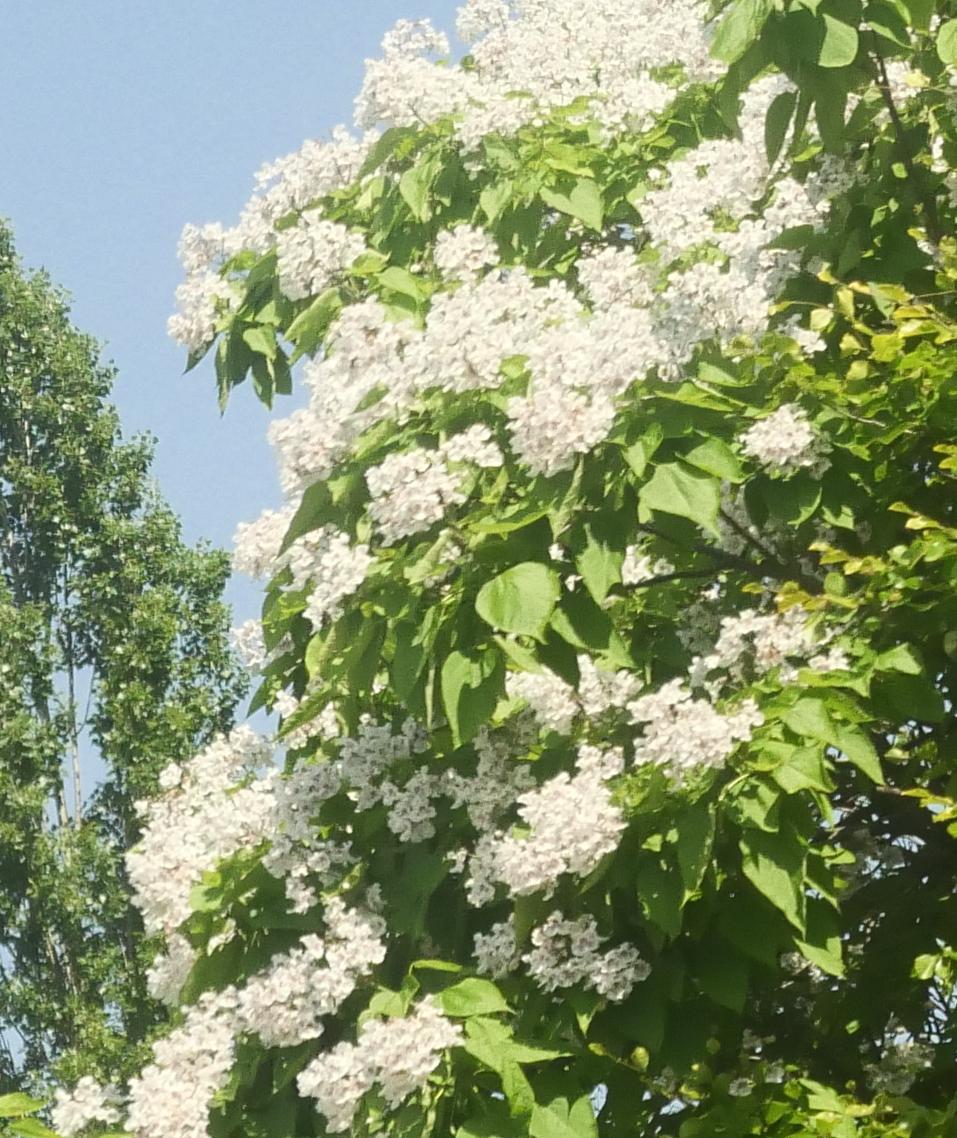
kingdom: Plantae
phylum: Tracheophyta
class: Magnoliopsida
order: Lamiales
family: Bignoniaceae
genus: Catalpa
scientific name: Catalpa bignonioides
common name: Southern catalpa
